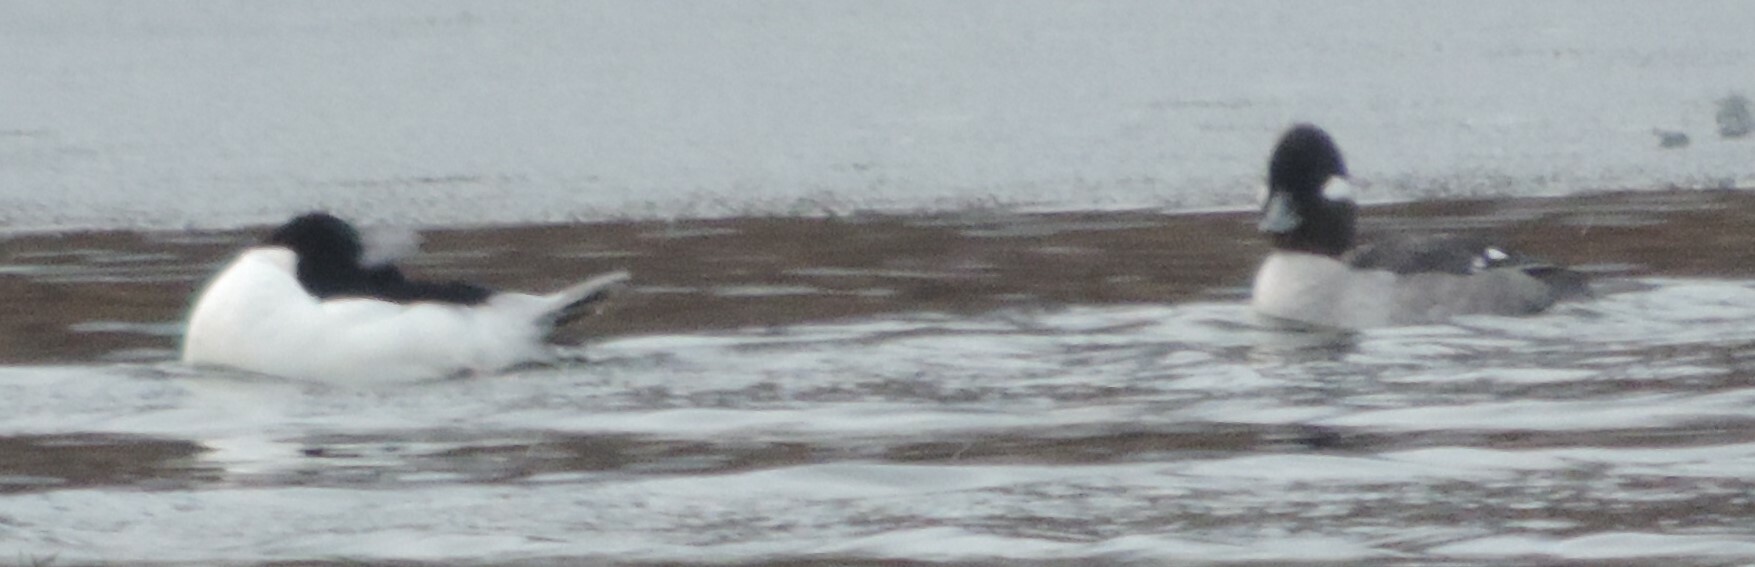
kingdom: Animalia
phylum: Chordata
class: Aves
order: Anseriformes
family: Anatidae
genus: Bucephala
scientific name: Bucephala albeola
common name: Bufflehead
